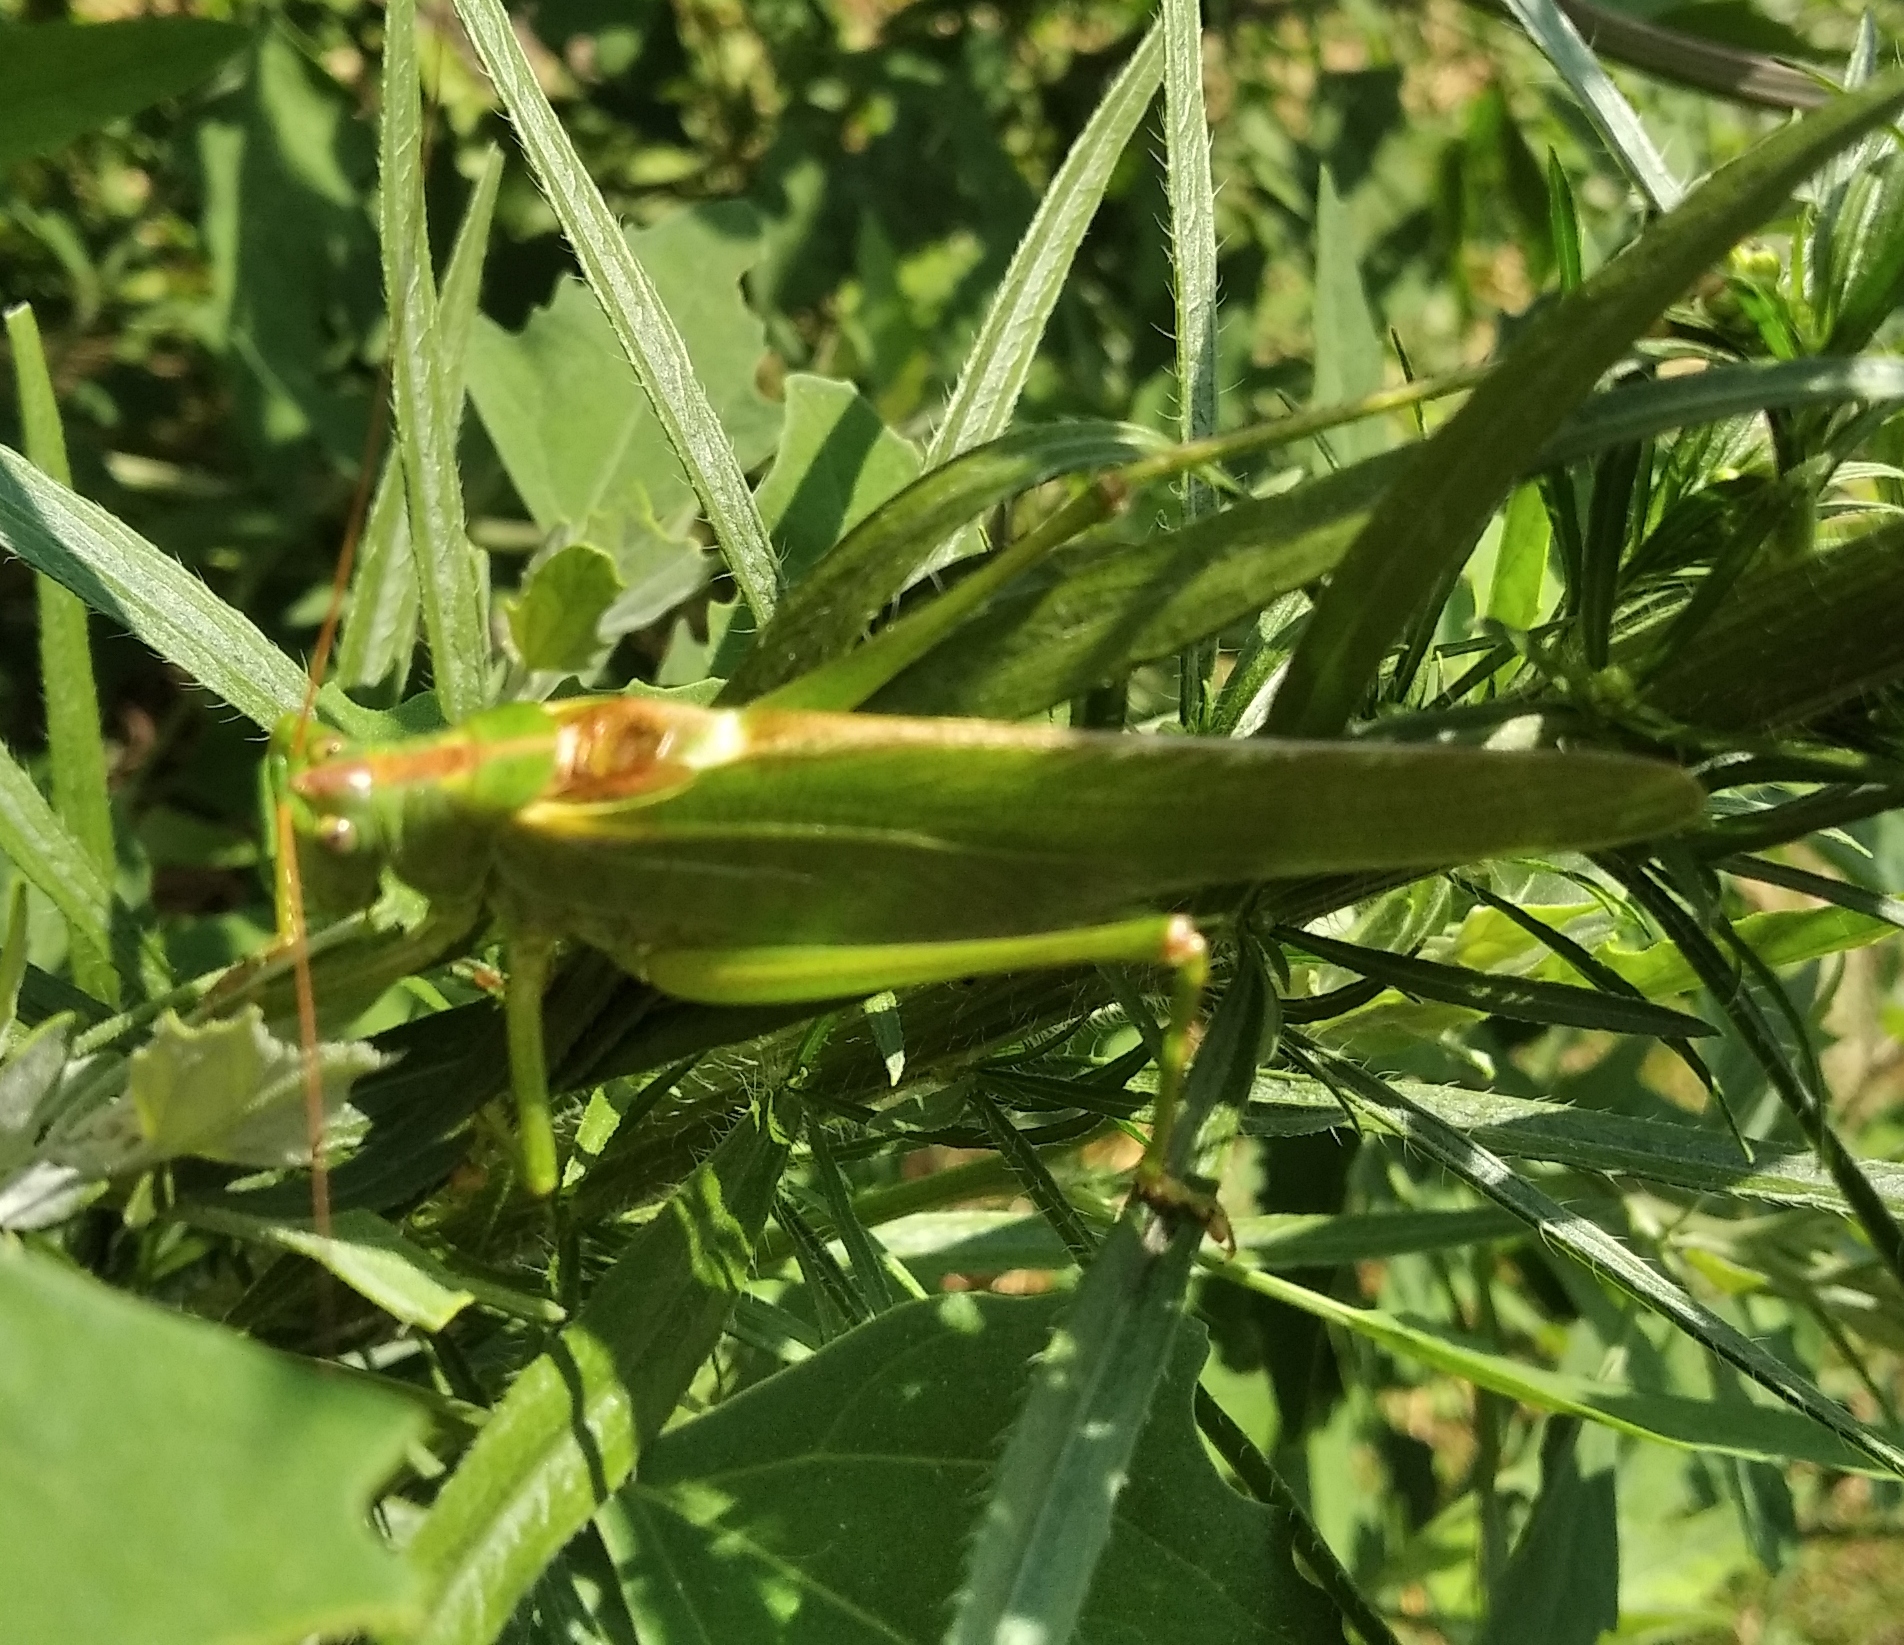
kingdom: Animalia
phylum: Arthropoda
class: Insecta
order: Orthoptera
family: Tettigoniidae
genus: Tettigonia
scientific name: Tettigonia viridissima
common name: Great green bush-cricket
